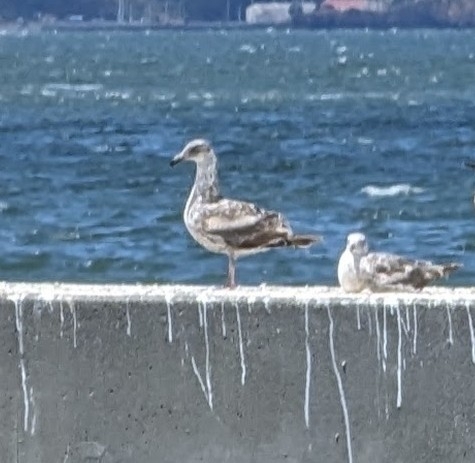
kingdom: Animalia
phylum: Chordata
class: Aves
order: Charadriiformes
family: Laridae
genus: Larus
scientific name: Larus occidentalis
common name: Western gull
